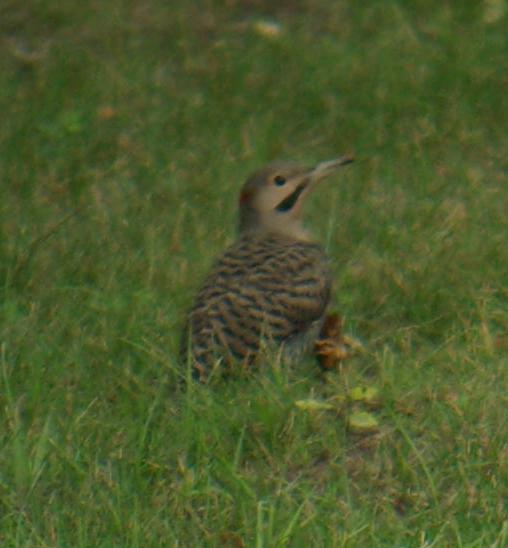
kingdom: Animalia
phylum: Chordata
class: Aves
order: Piciformes
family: Picidae
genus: Colaptes
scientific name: Colaptes auratus
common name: Northern flicker
